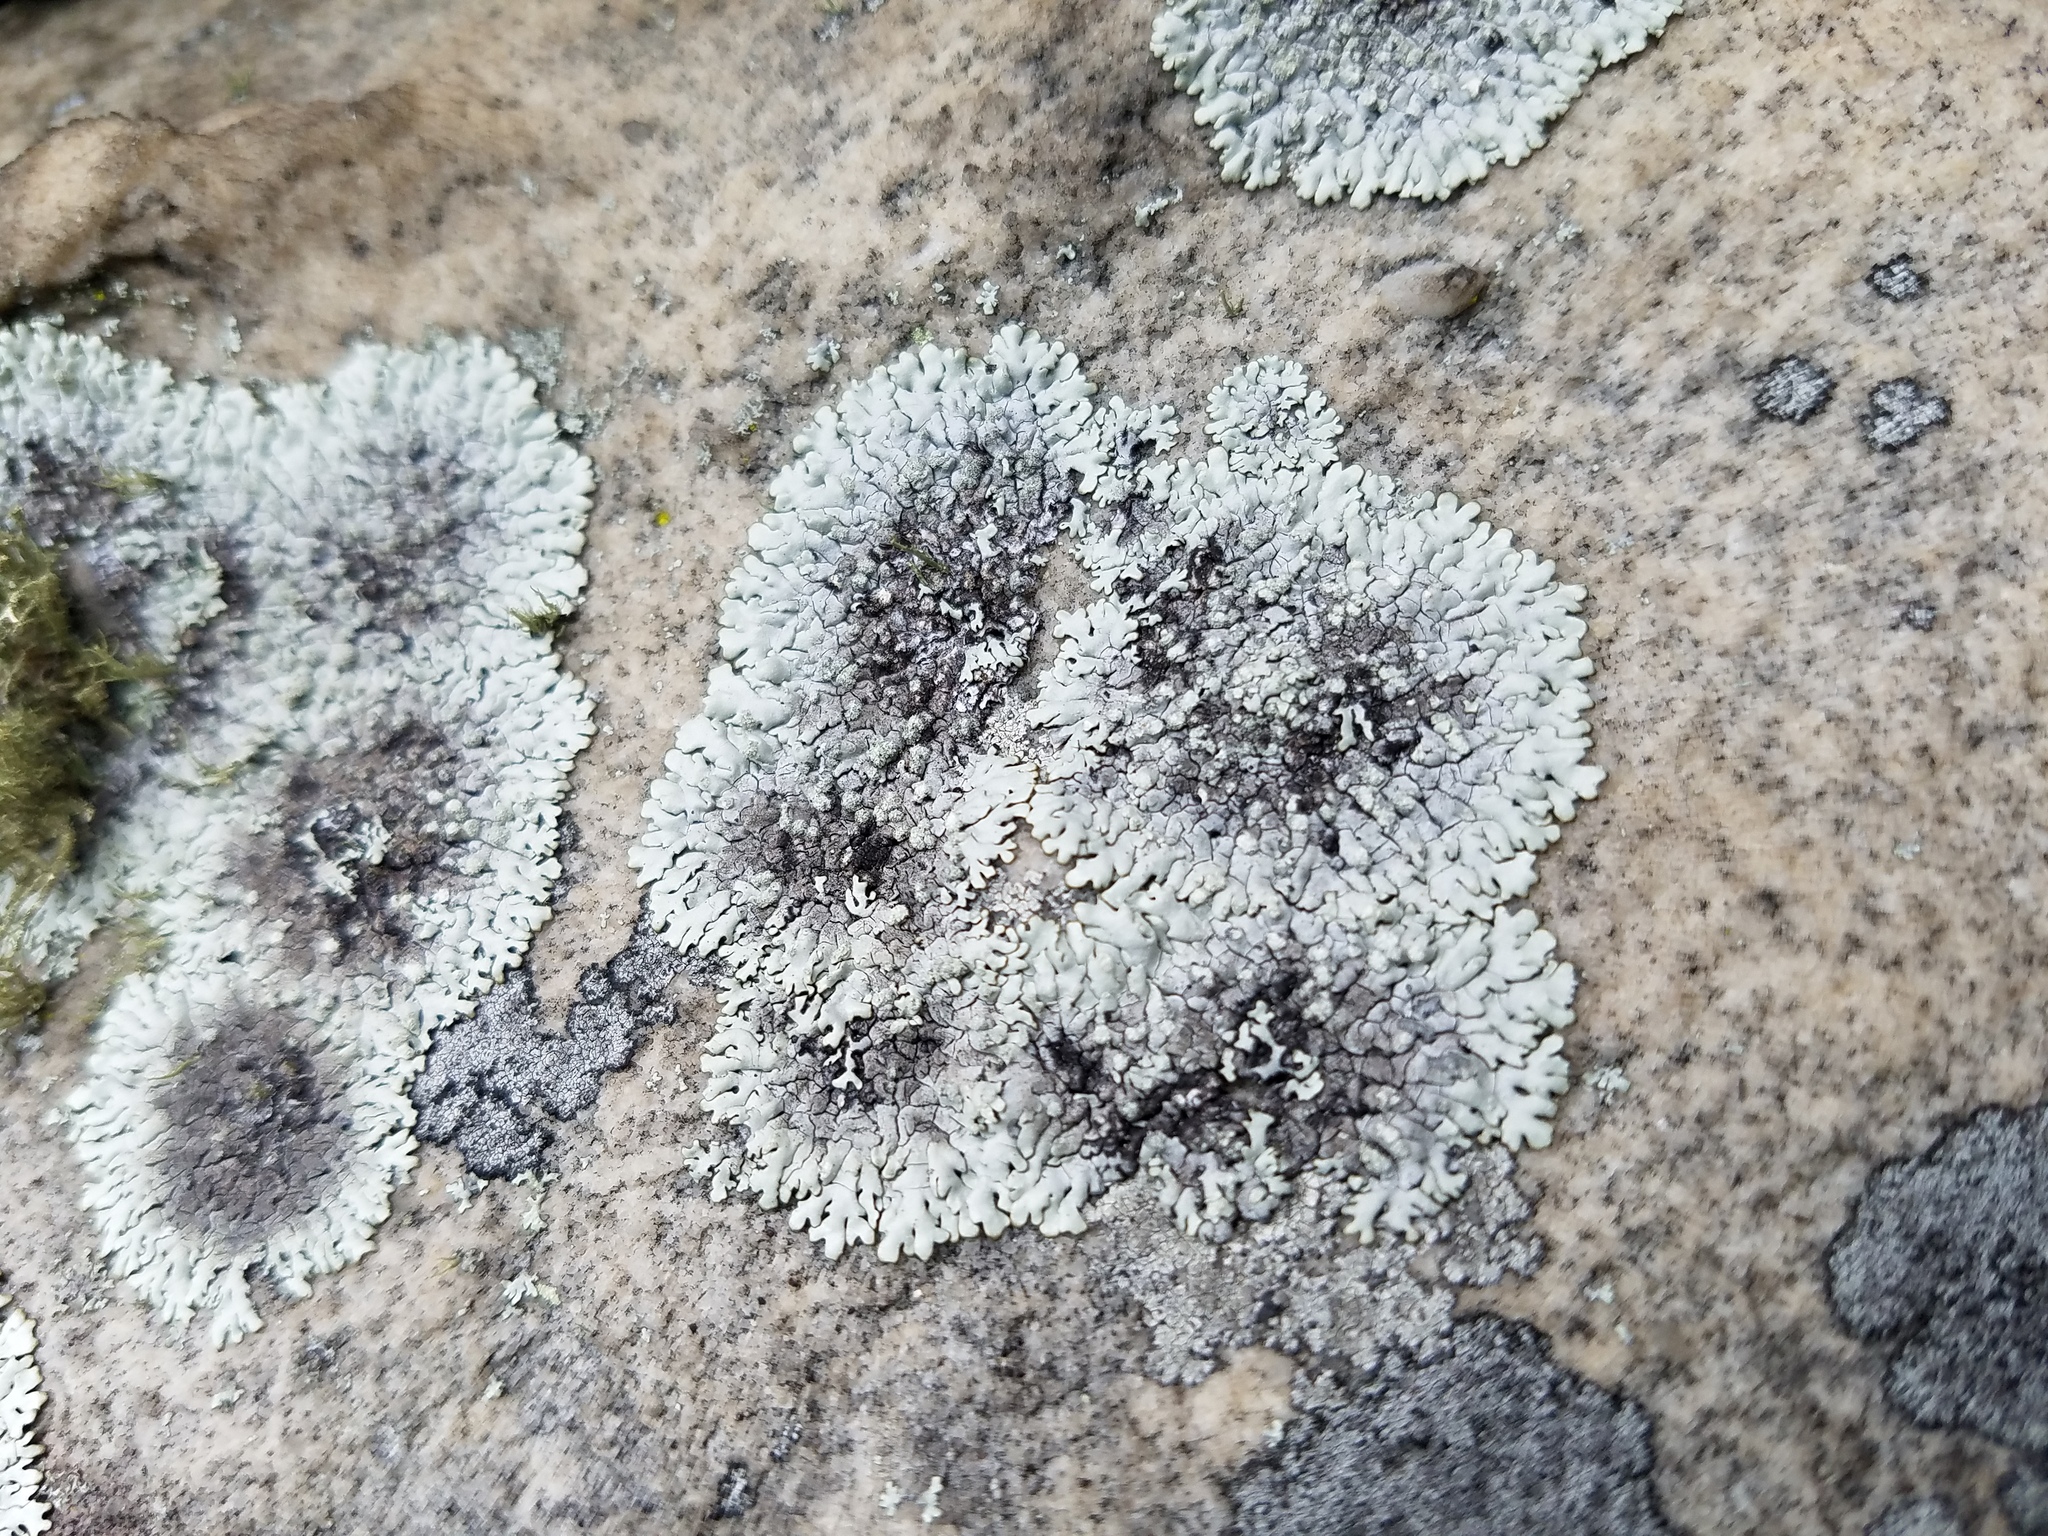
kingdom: Fungi
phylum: Ascomycota
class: Lecanoromycetes
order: Lecanorales
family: Parmeliaceae
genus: Canoparmelia
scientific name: Canoparmelia alabamensis
